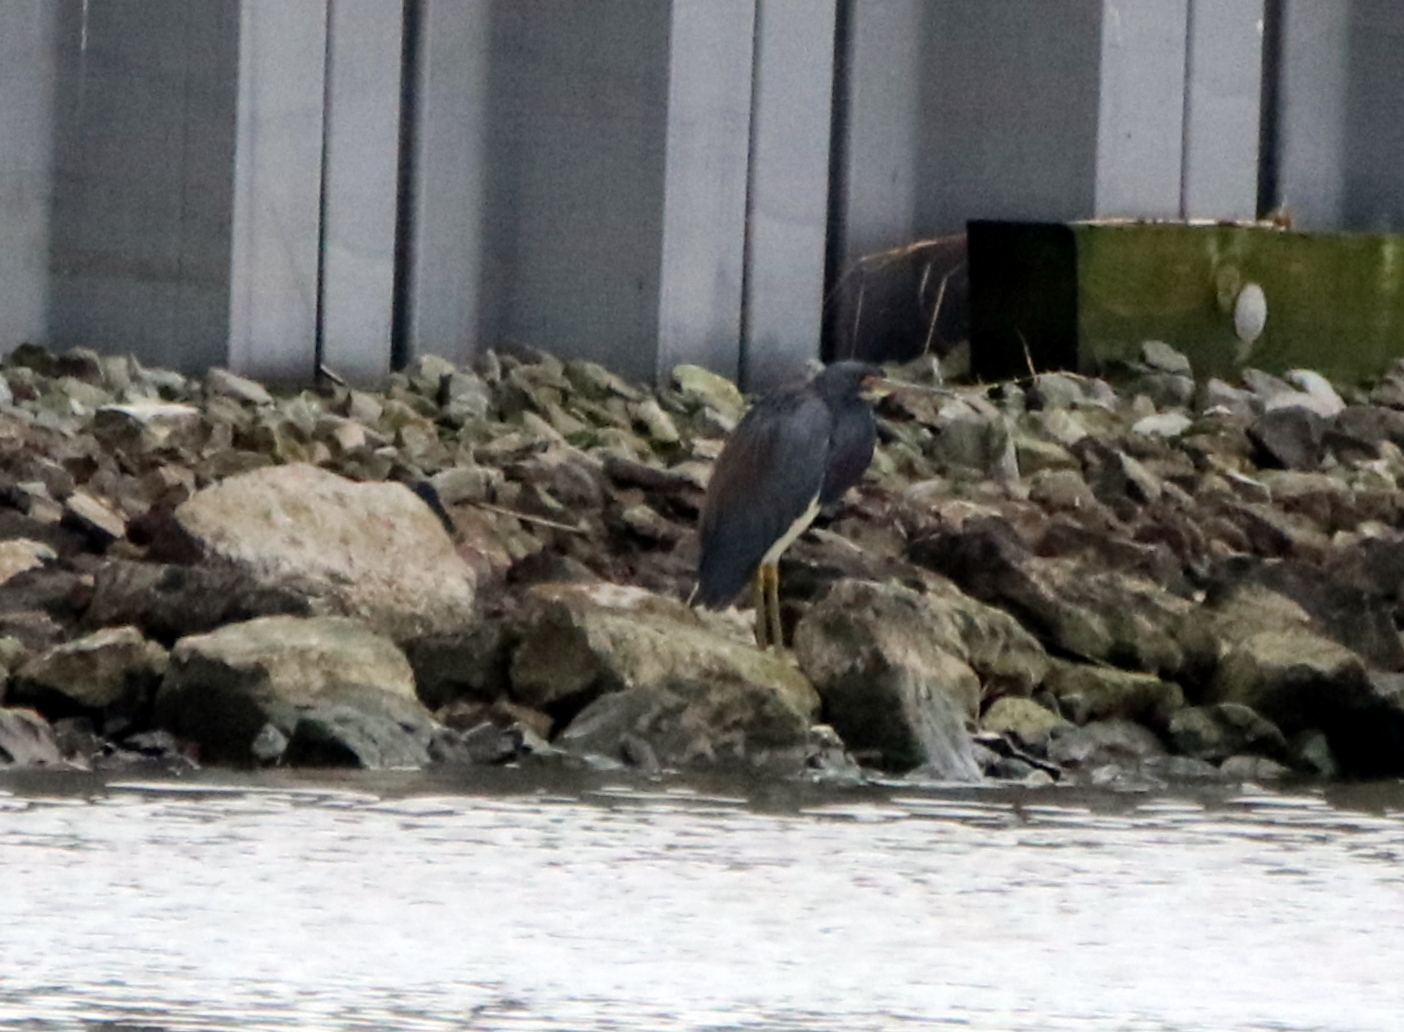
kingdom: Animalia
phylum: Chordata
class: Aves
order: Pelecaniformes
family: Ardeidae
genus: Egretta
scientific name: Egretta tricolor
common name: Tricolored heron
